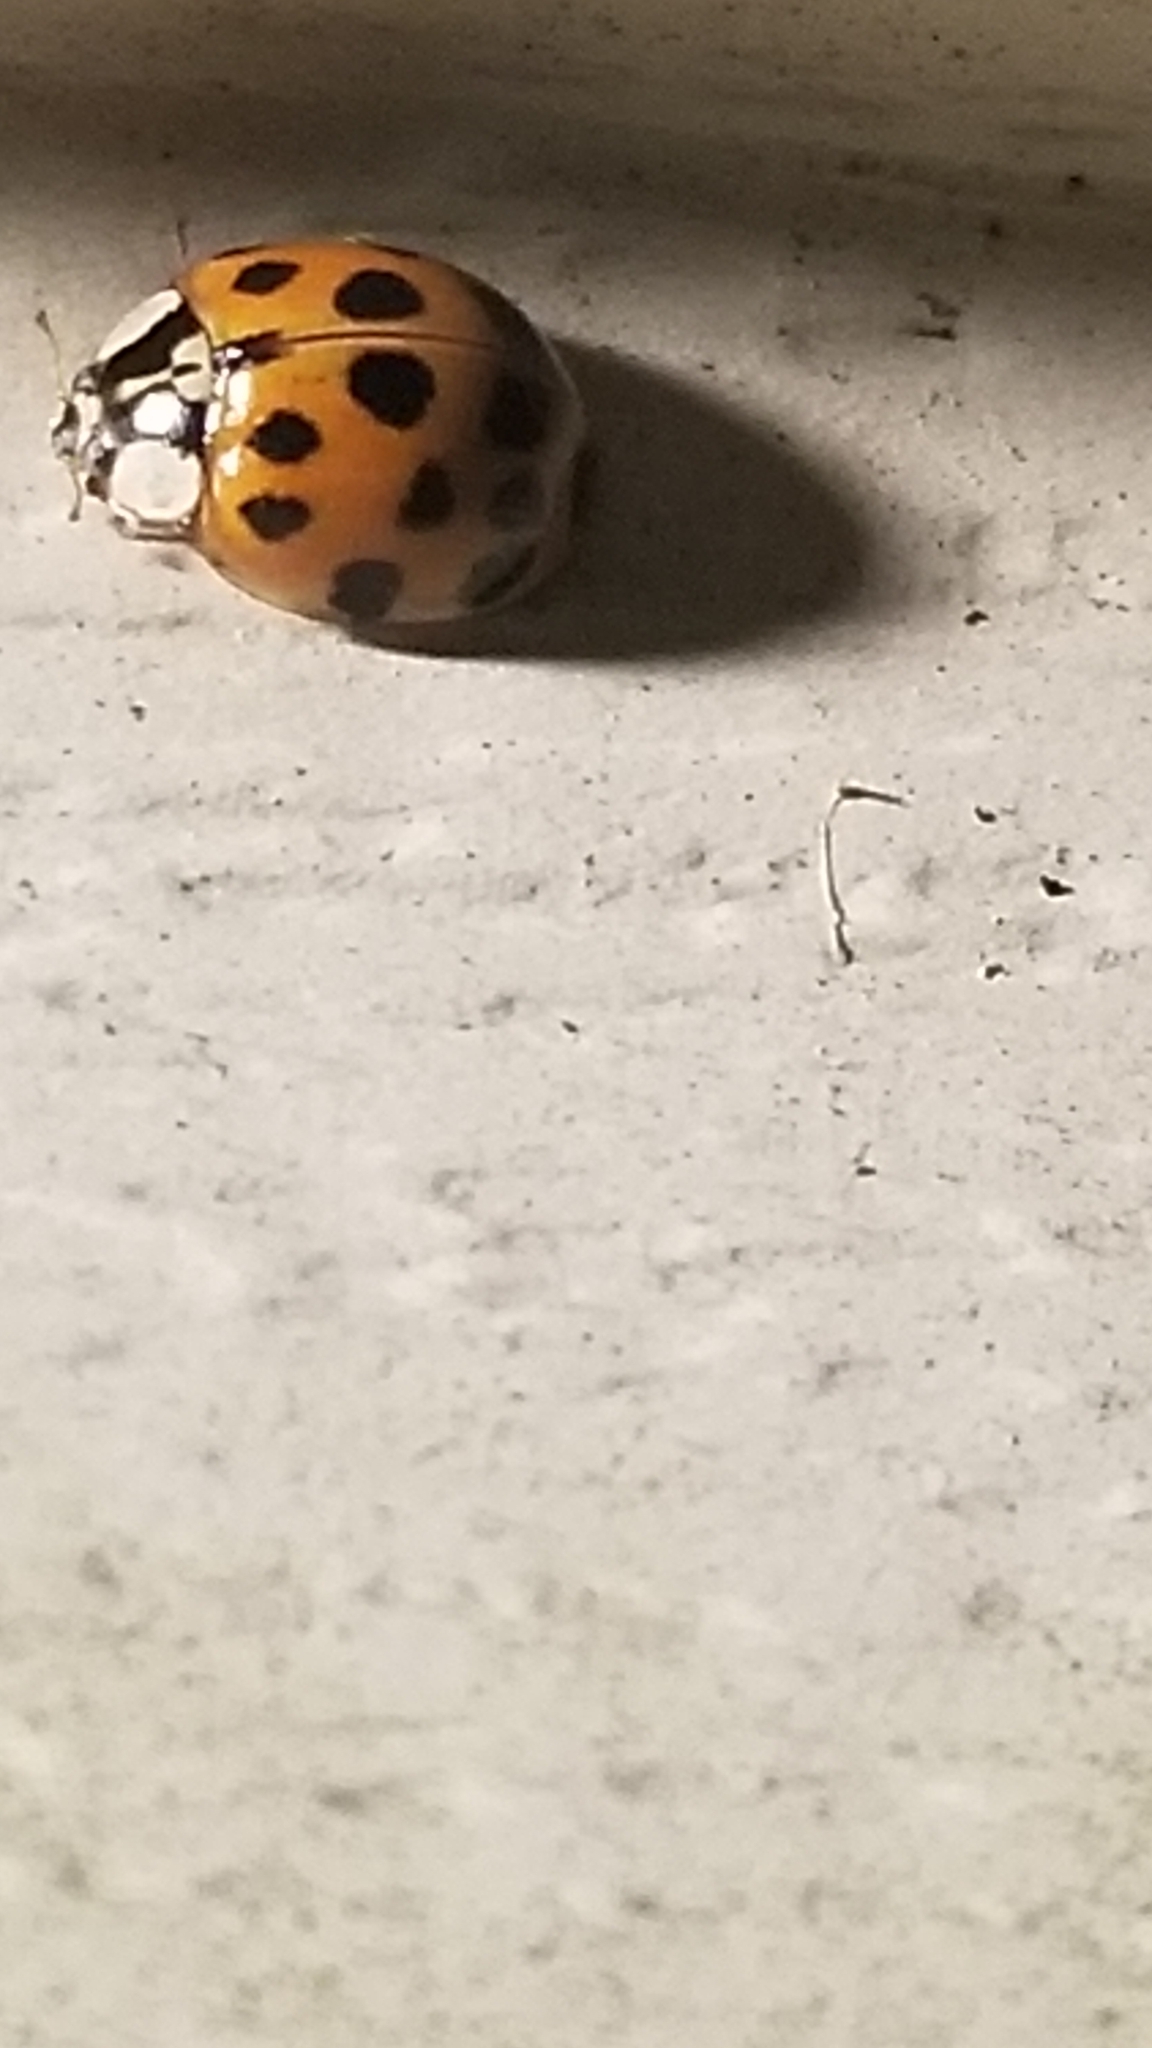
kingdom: Animalia
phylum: Arthropoda
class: Insecta
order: Coleoptera
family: Coccinellidae
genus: Harmonia
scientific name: Harmonia axyridis
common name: Harlequin ladybird
